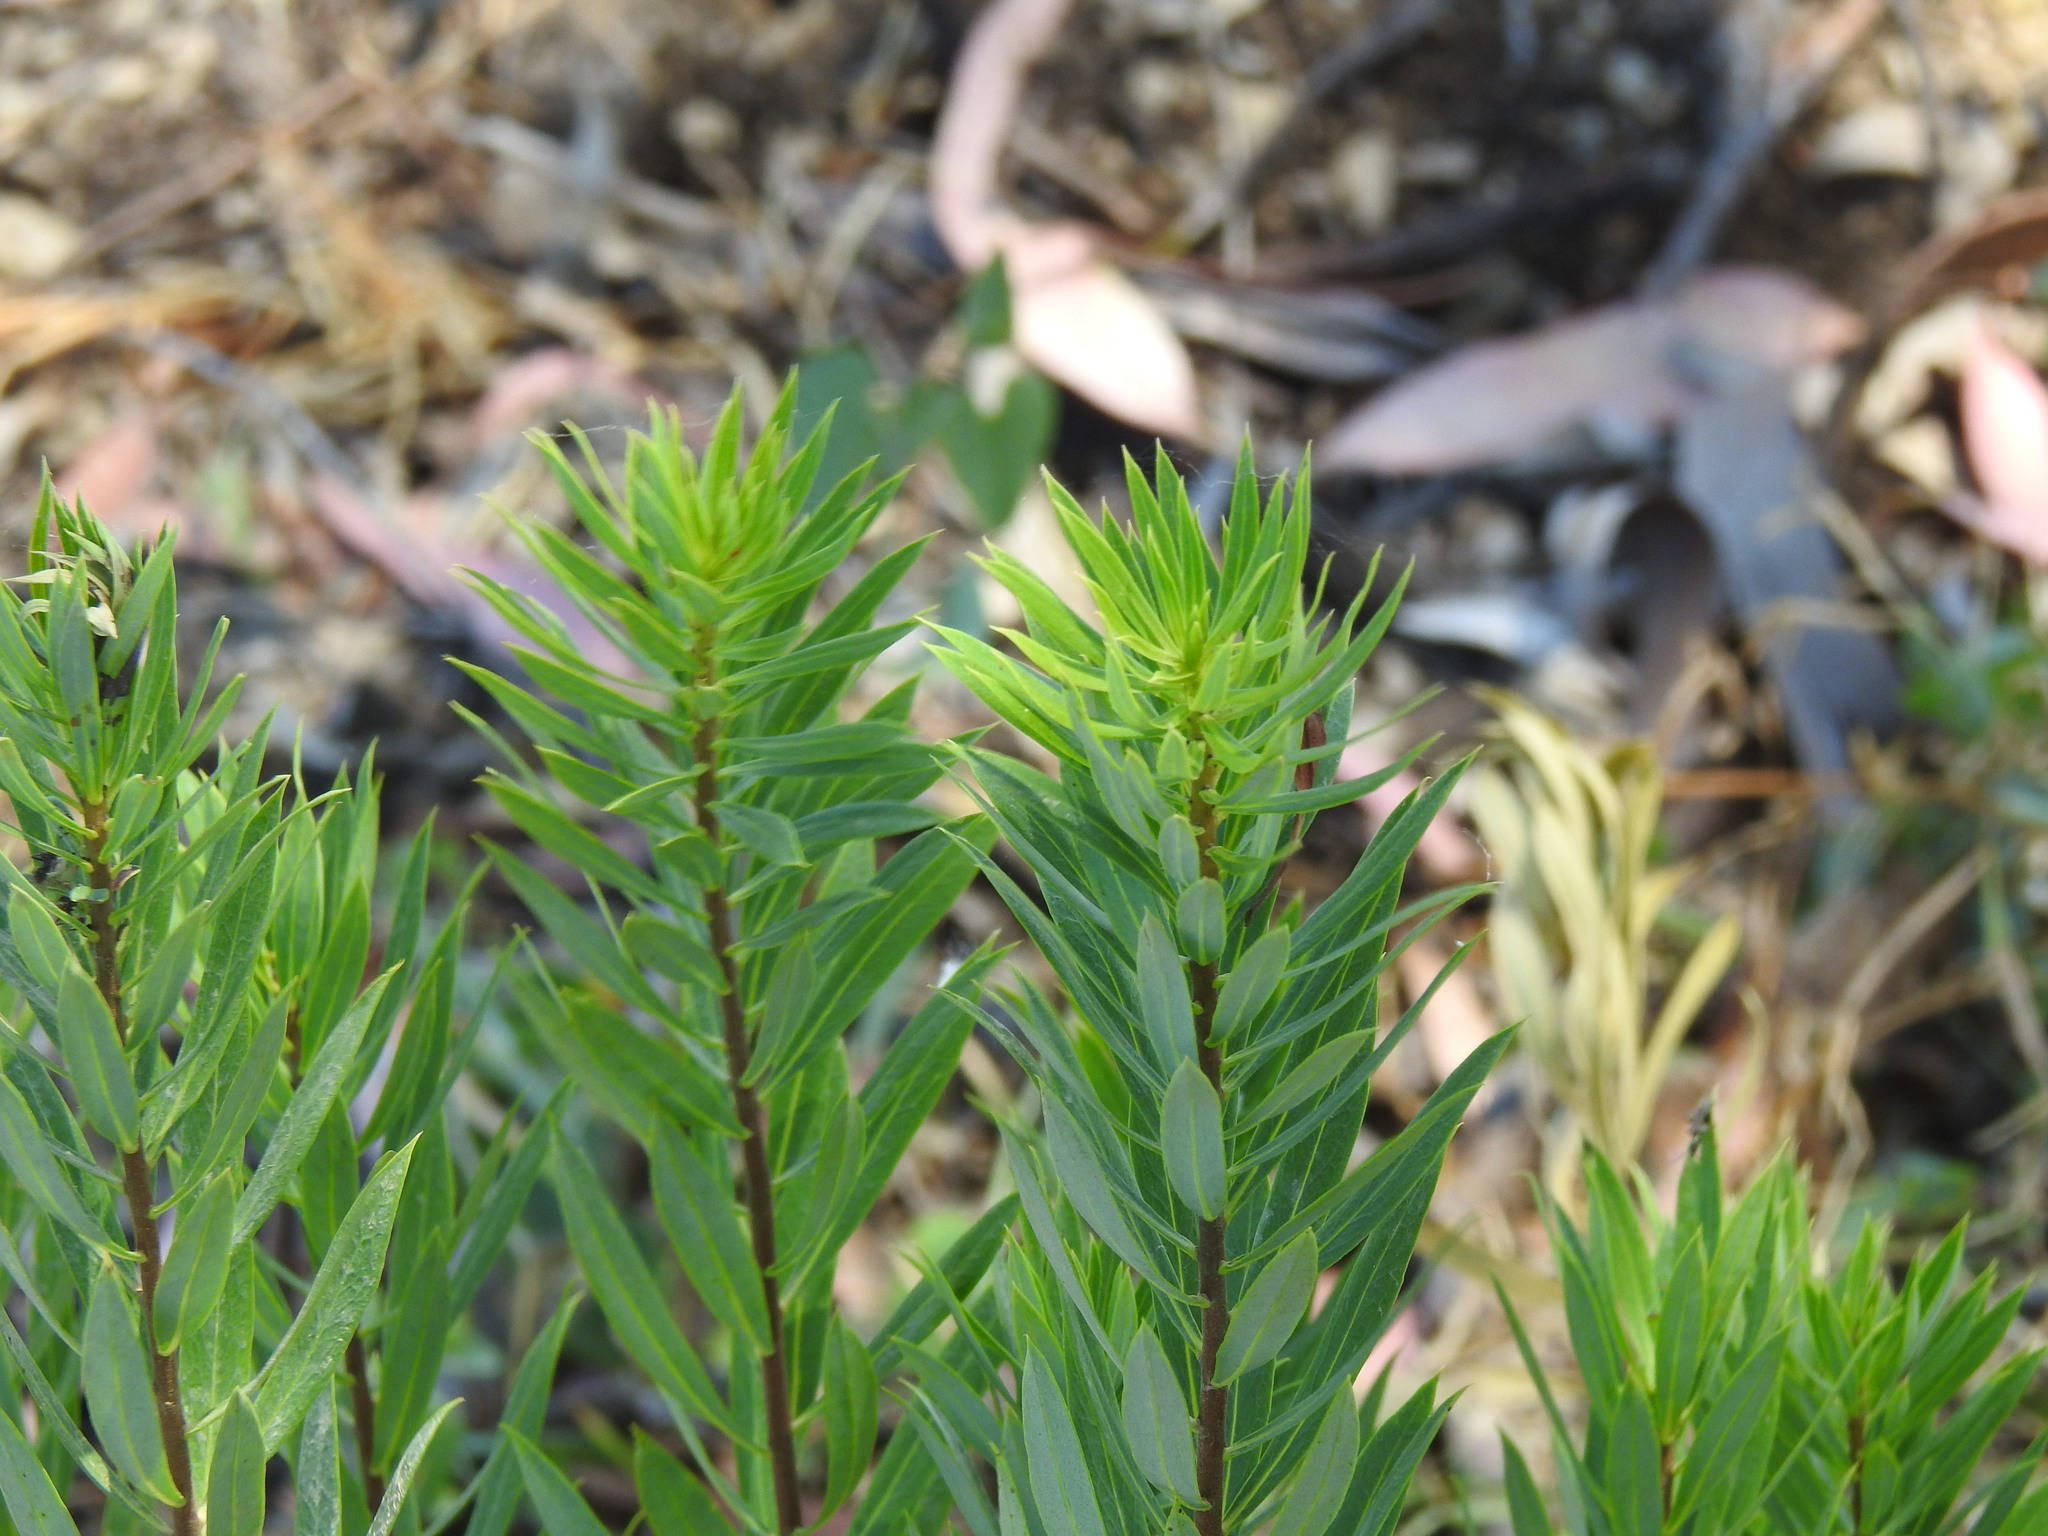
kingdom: Plantae
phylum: Tracheophyta
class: Magnoliopsida
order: Malvales
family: Thymelaeaceae
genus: Daphne
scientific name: Daphne gnidium
